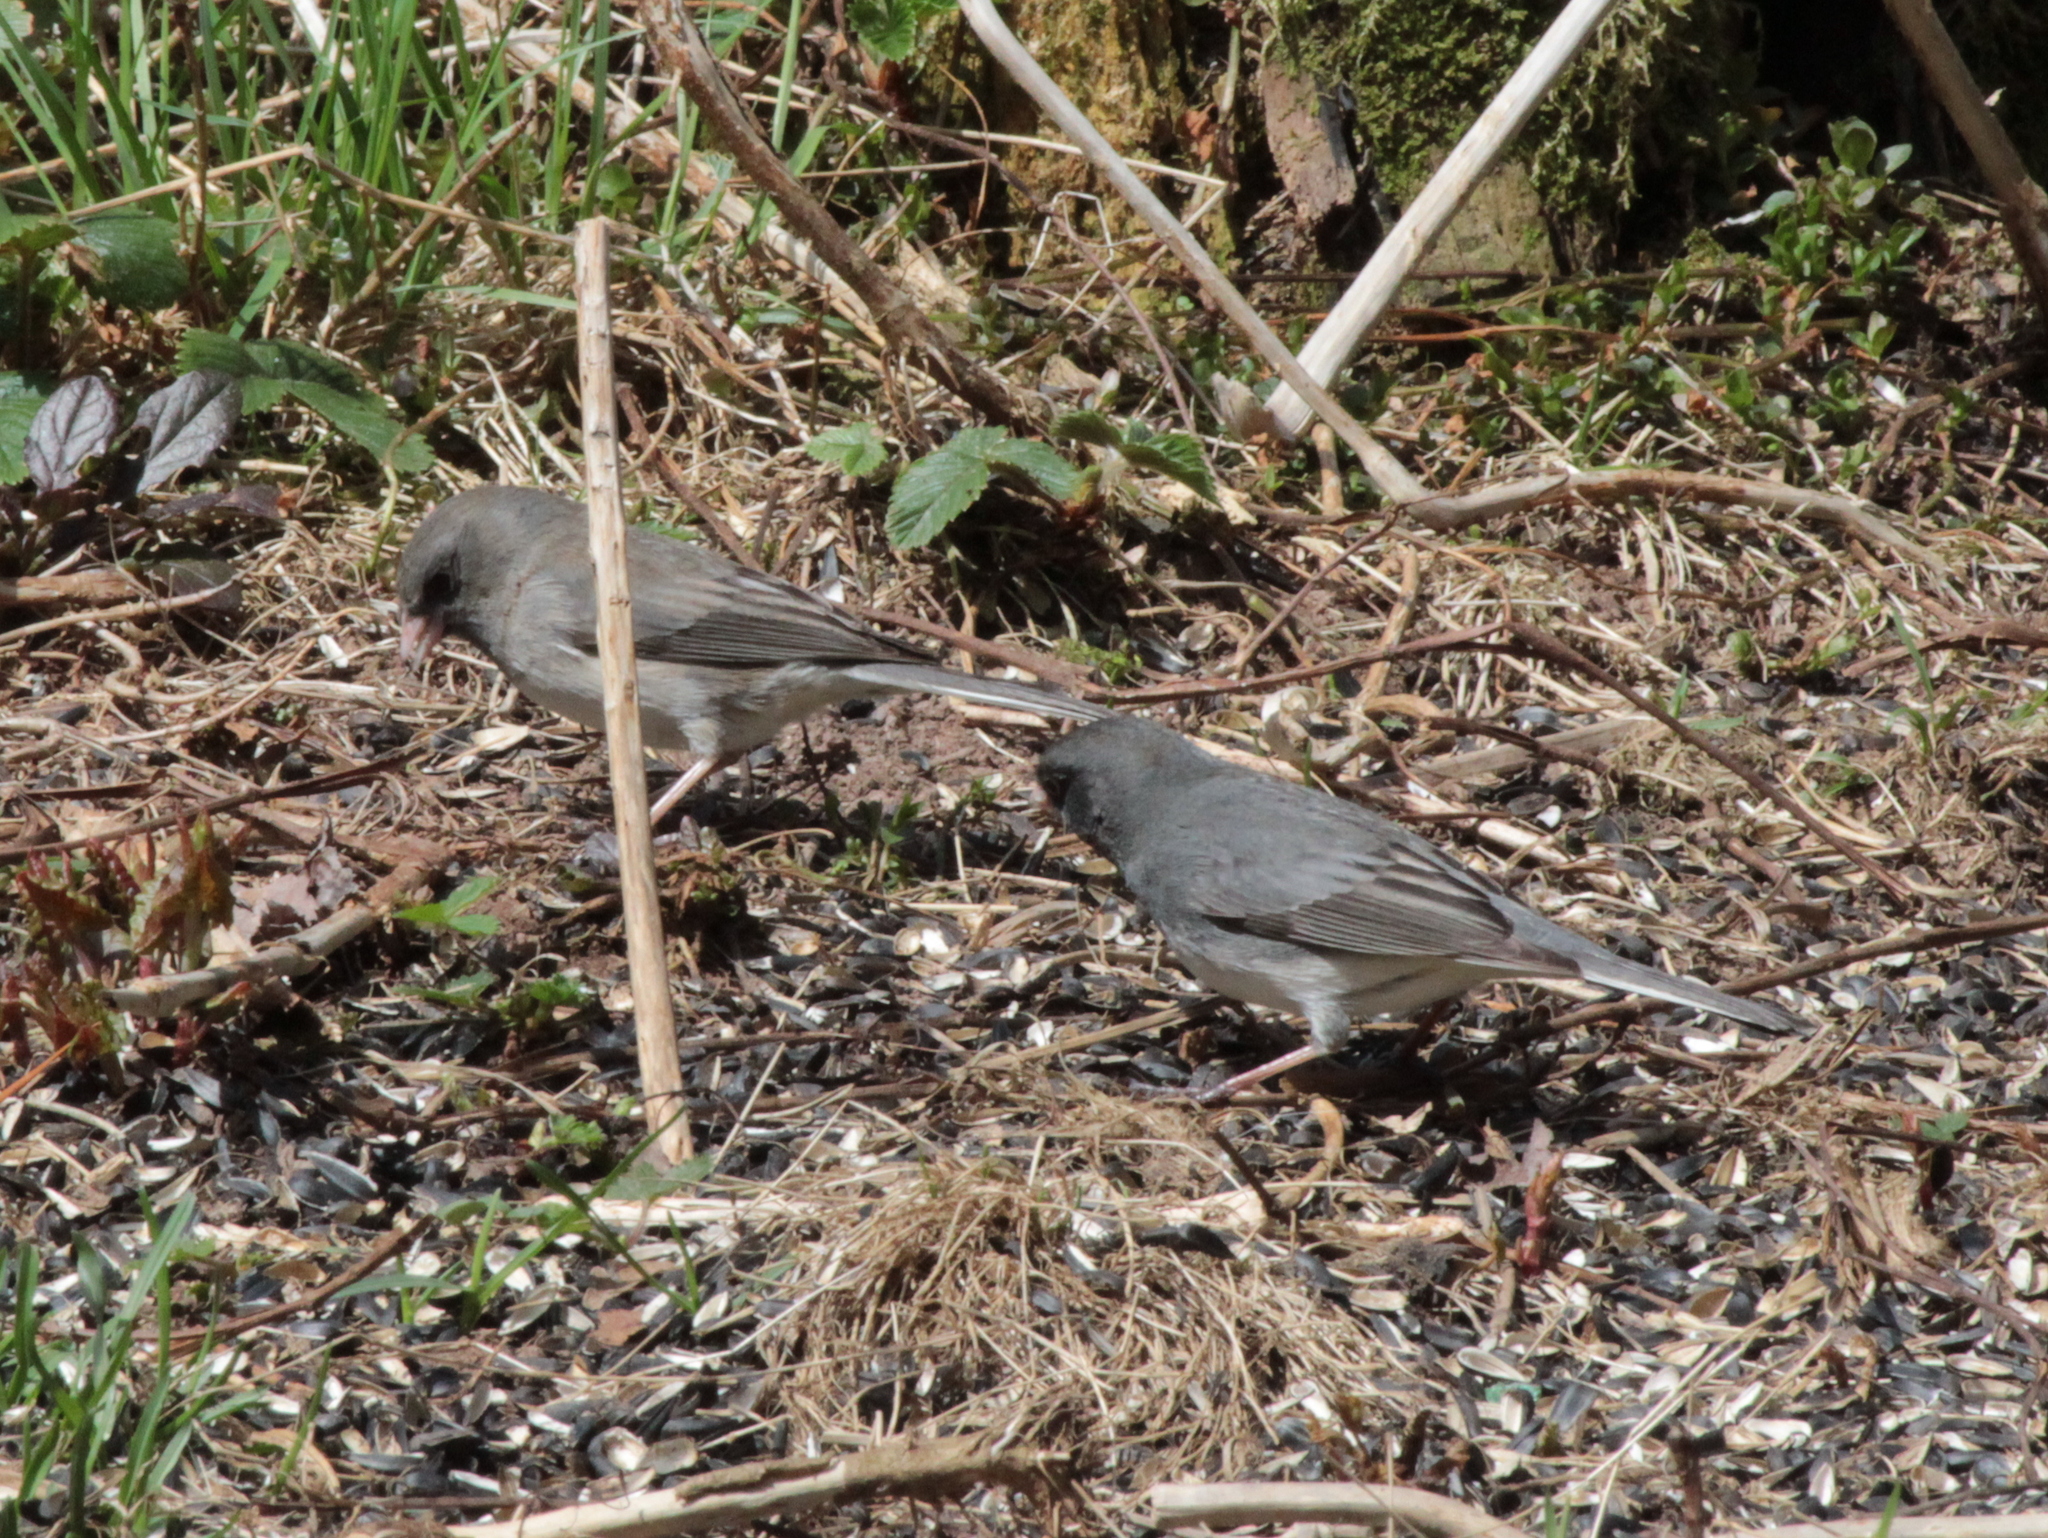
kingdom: Animalia
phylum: Chordata
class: Aves
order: Passeriformes
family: Passerellidae
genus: Junco
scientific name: Junco hyemalis
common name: Dark-eyed junco
